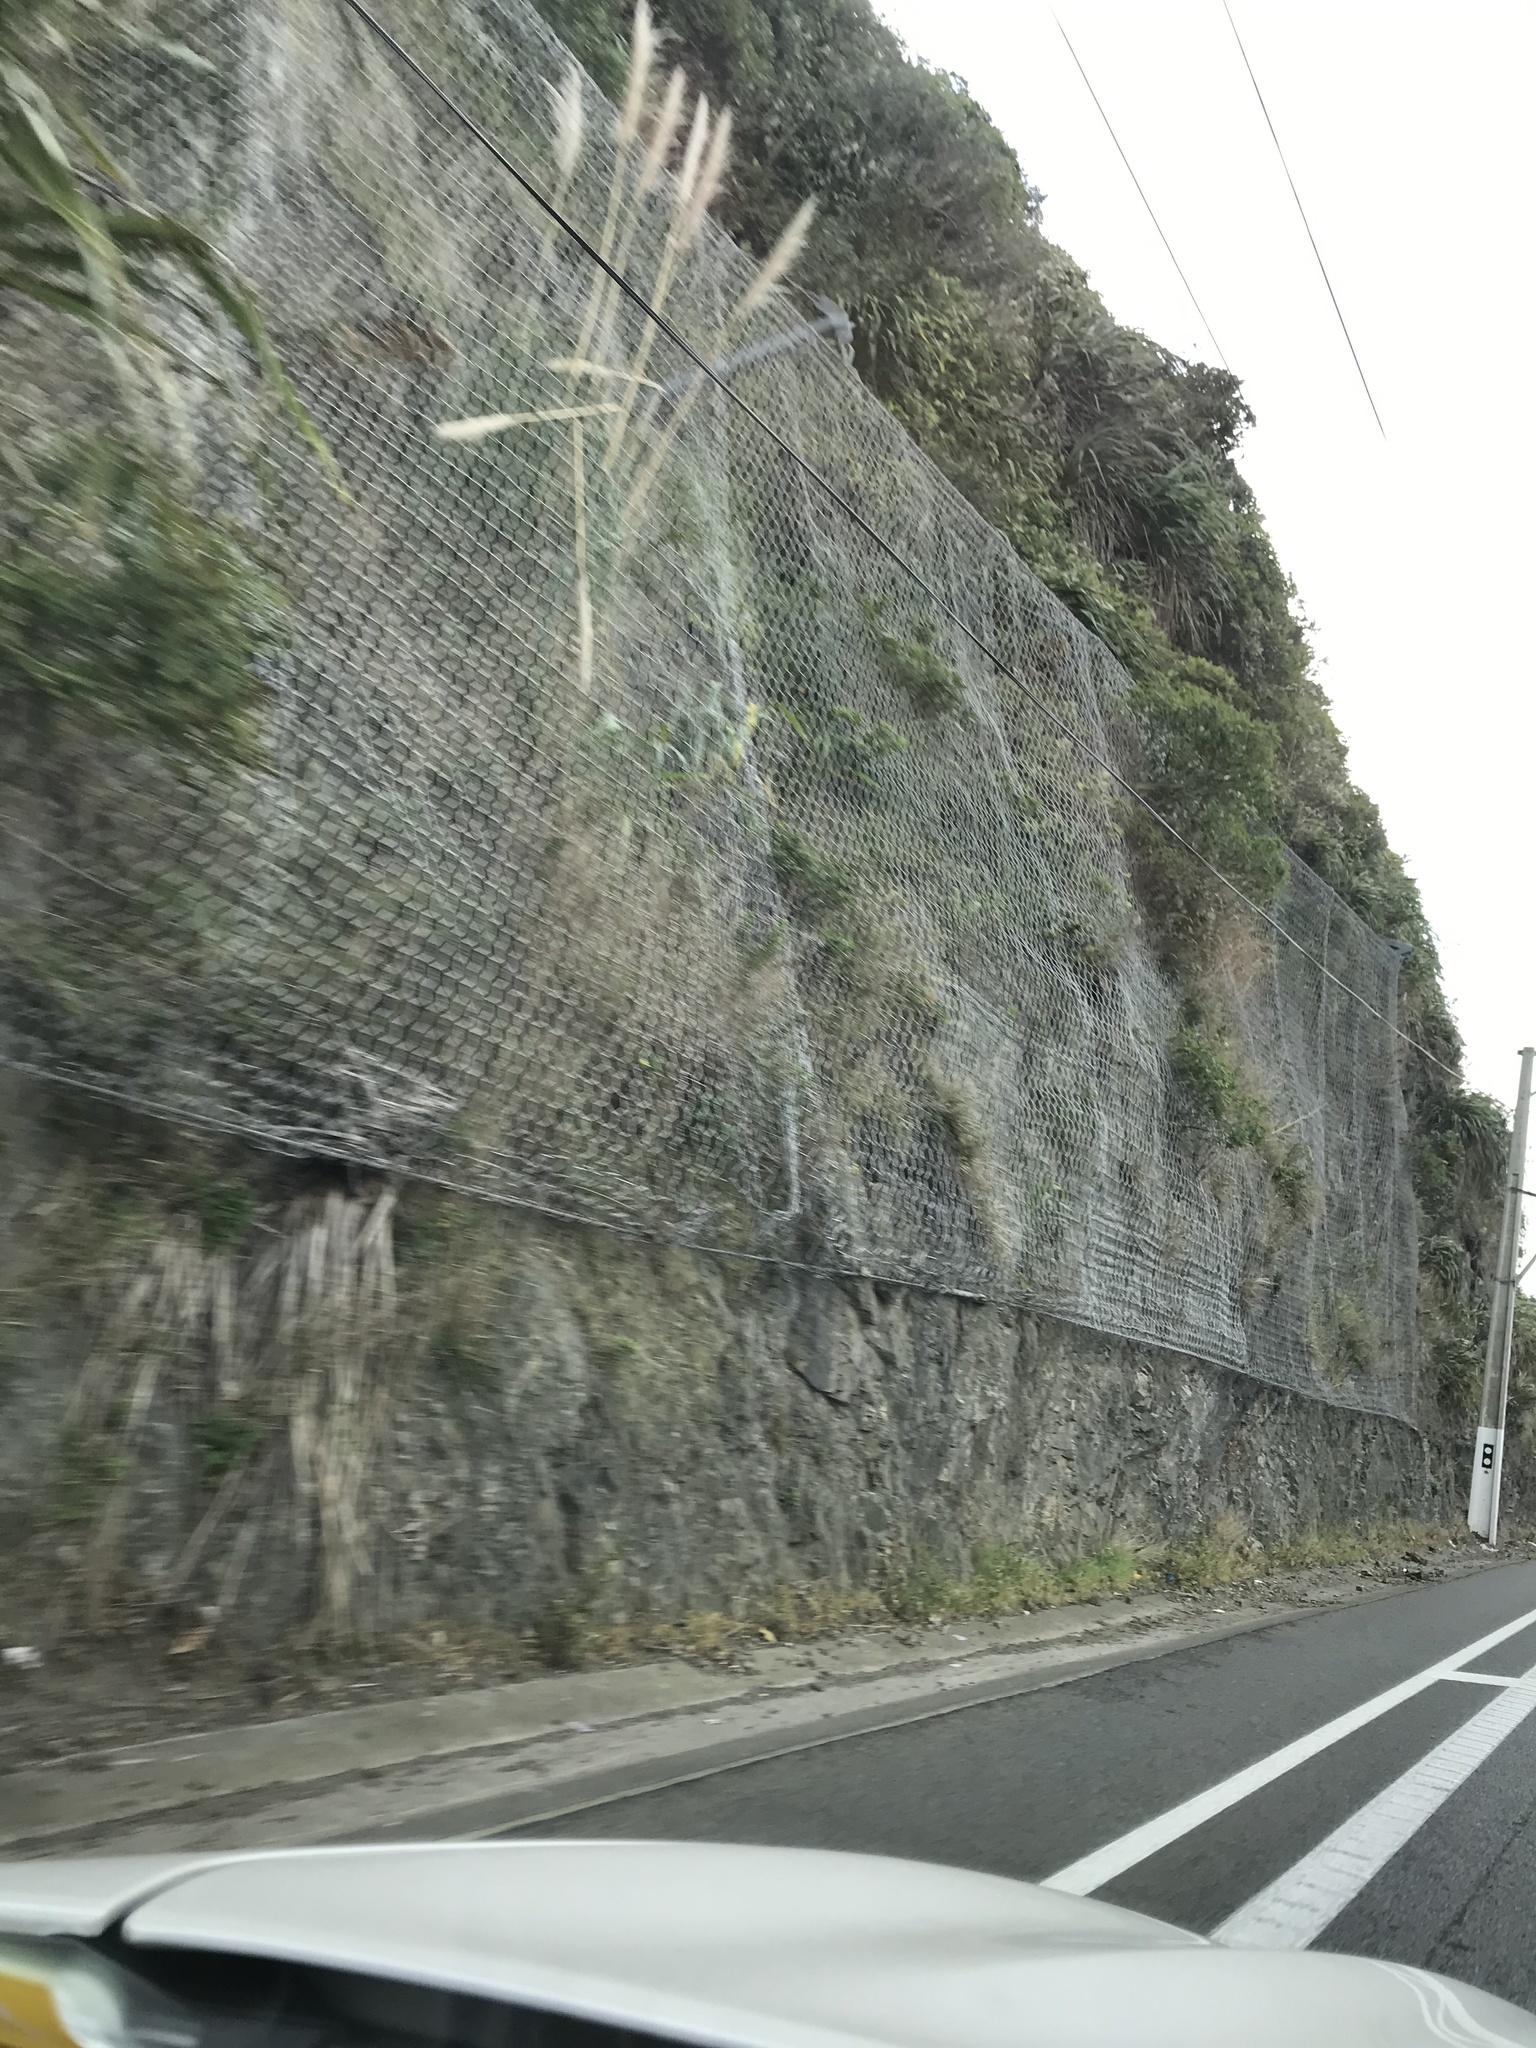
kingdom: Plantae
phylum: Tracheophyta
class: Liliopsida
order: Poales
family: Poaceae
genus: Cortaderia
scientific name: Cortaderia selloana
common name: Uruguayan pampas grass
